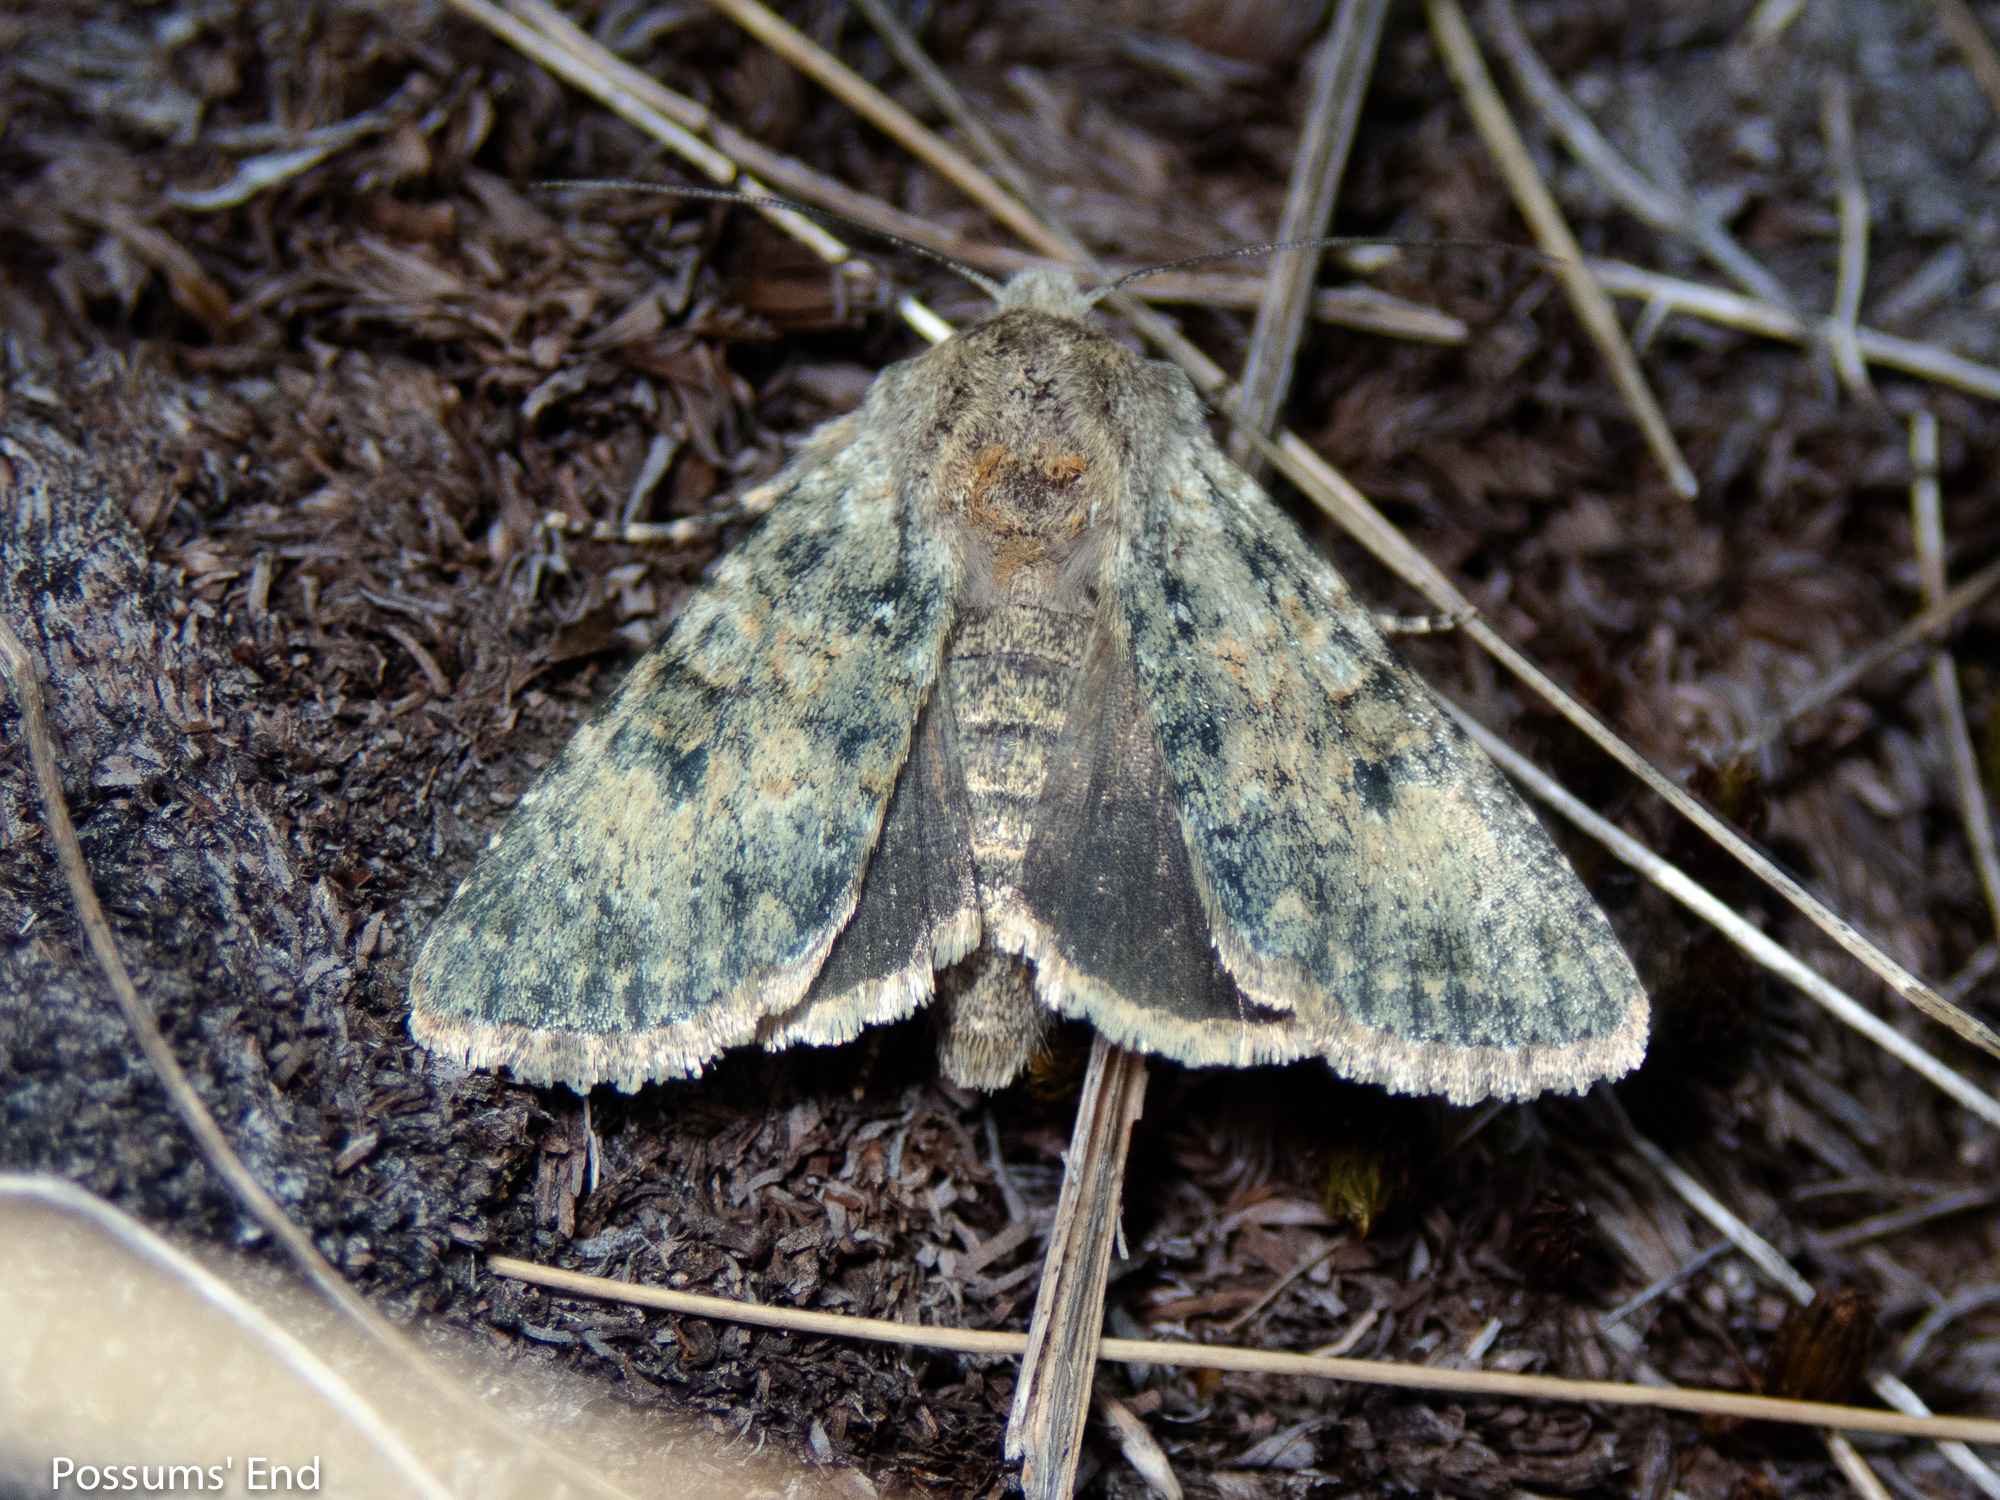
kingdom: Animalia
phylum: Arthropoda
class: Insecta
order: Lepidoptera
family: Noctuidae
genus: Ichneutica
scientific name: Ichneutica cuneata
